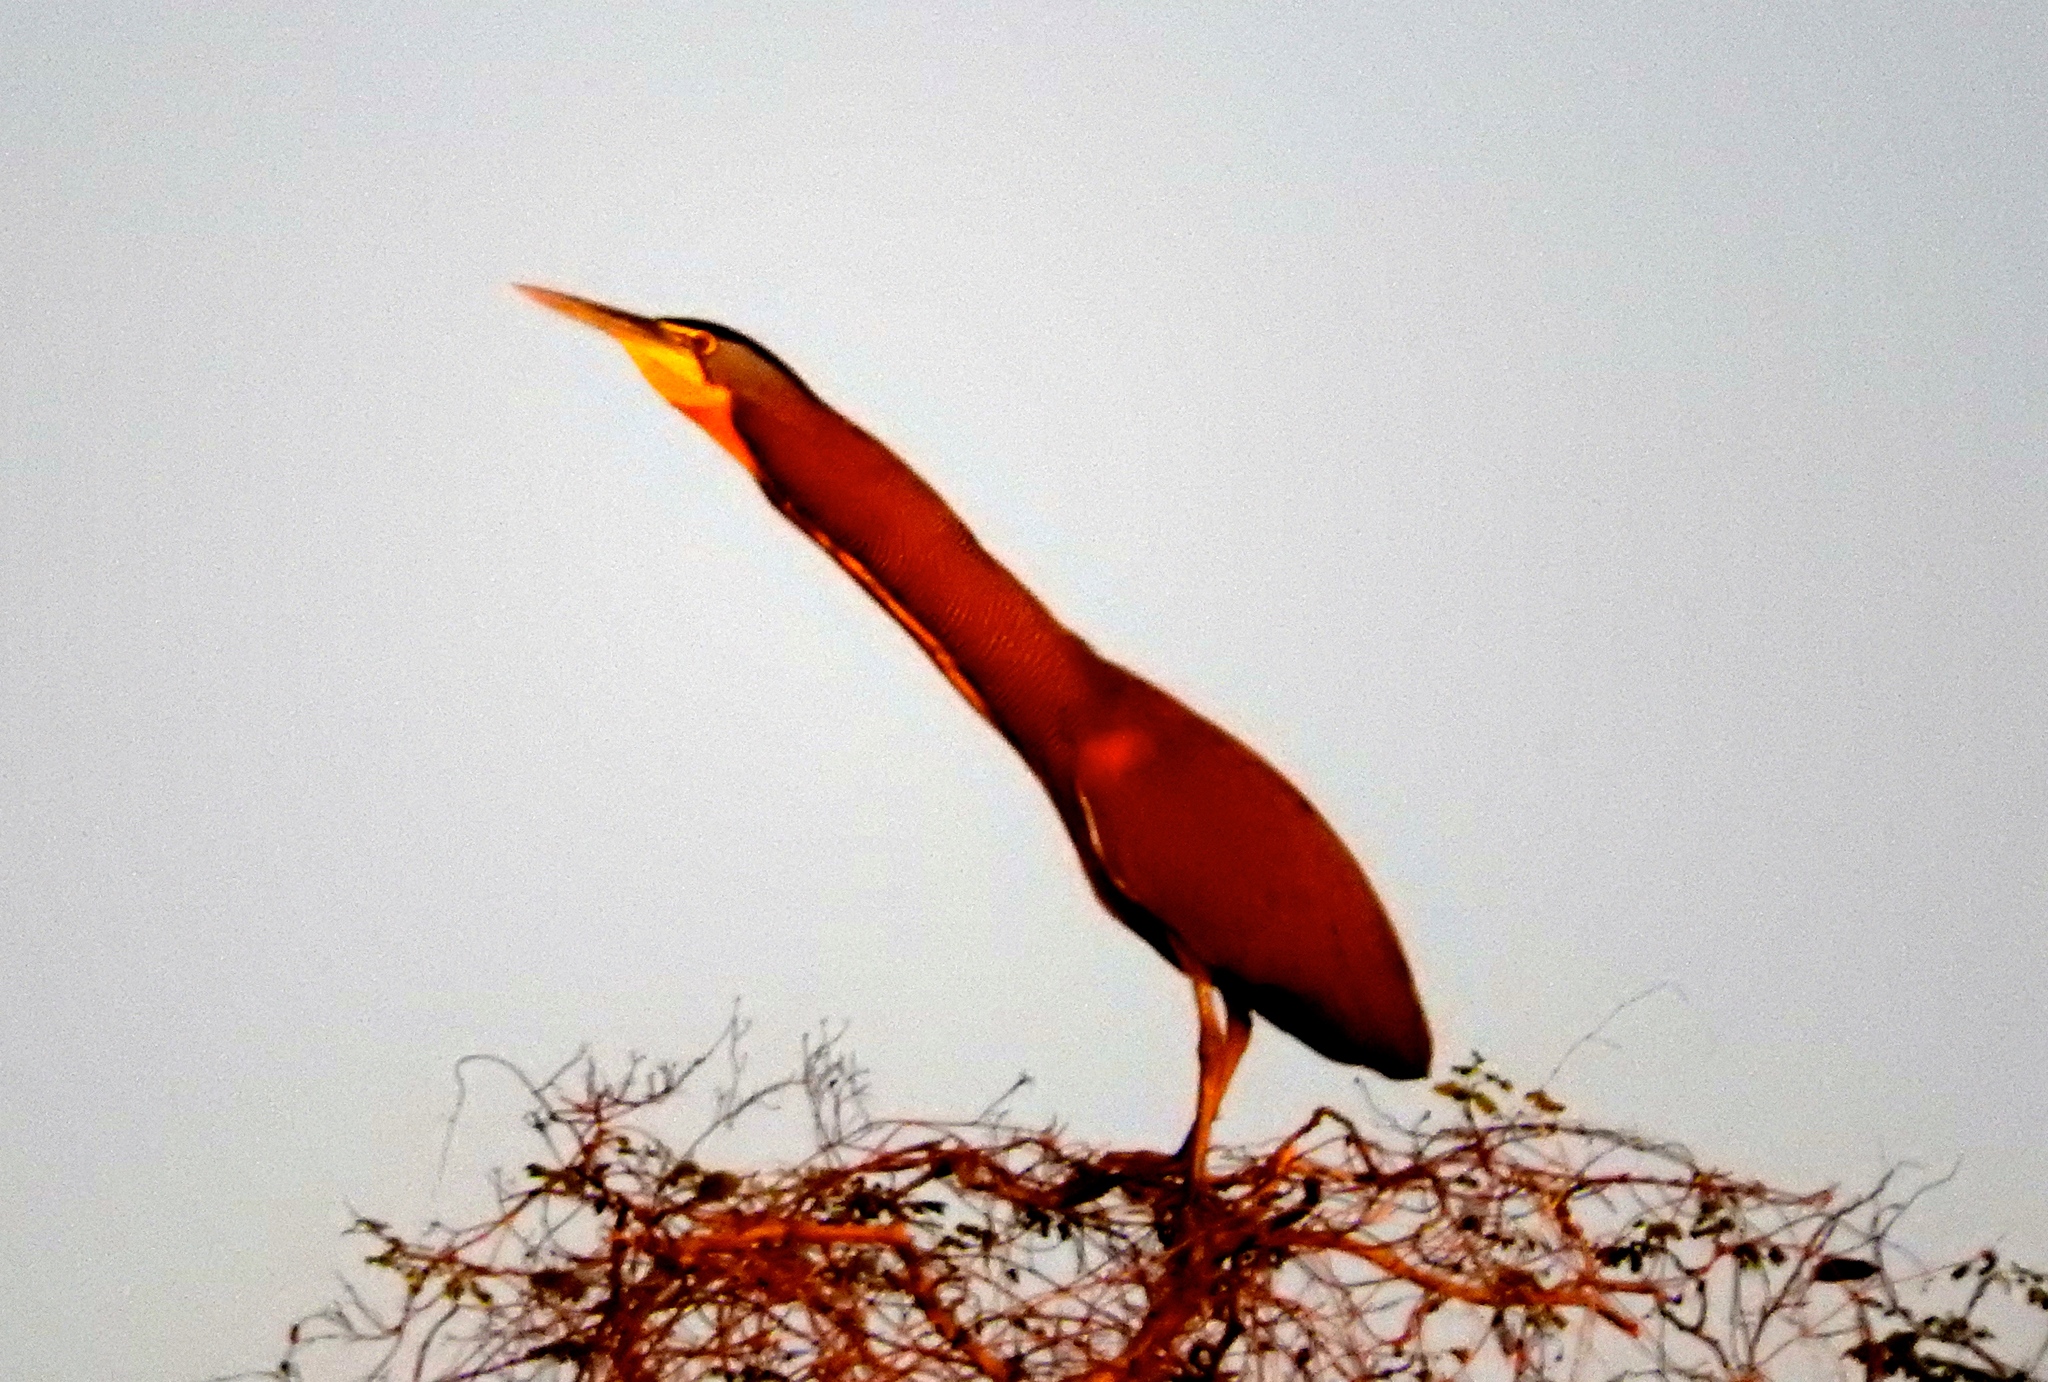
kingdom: Animalia
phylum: Chordata
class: Aves
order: Pelecaniformes
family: Ardeidae
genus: Tigrisoma
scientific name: Tigrisoma mexicanum
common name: Bare-throated tiger-heron
